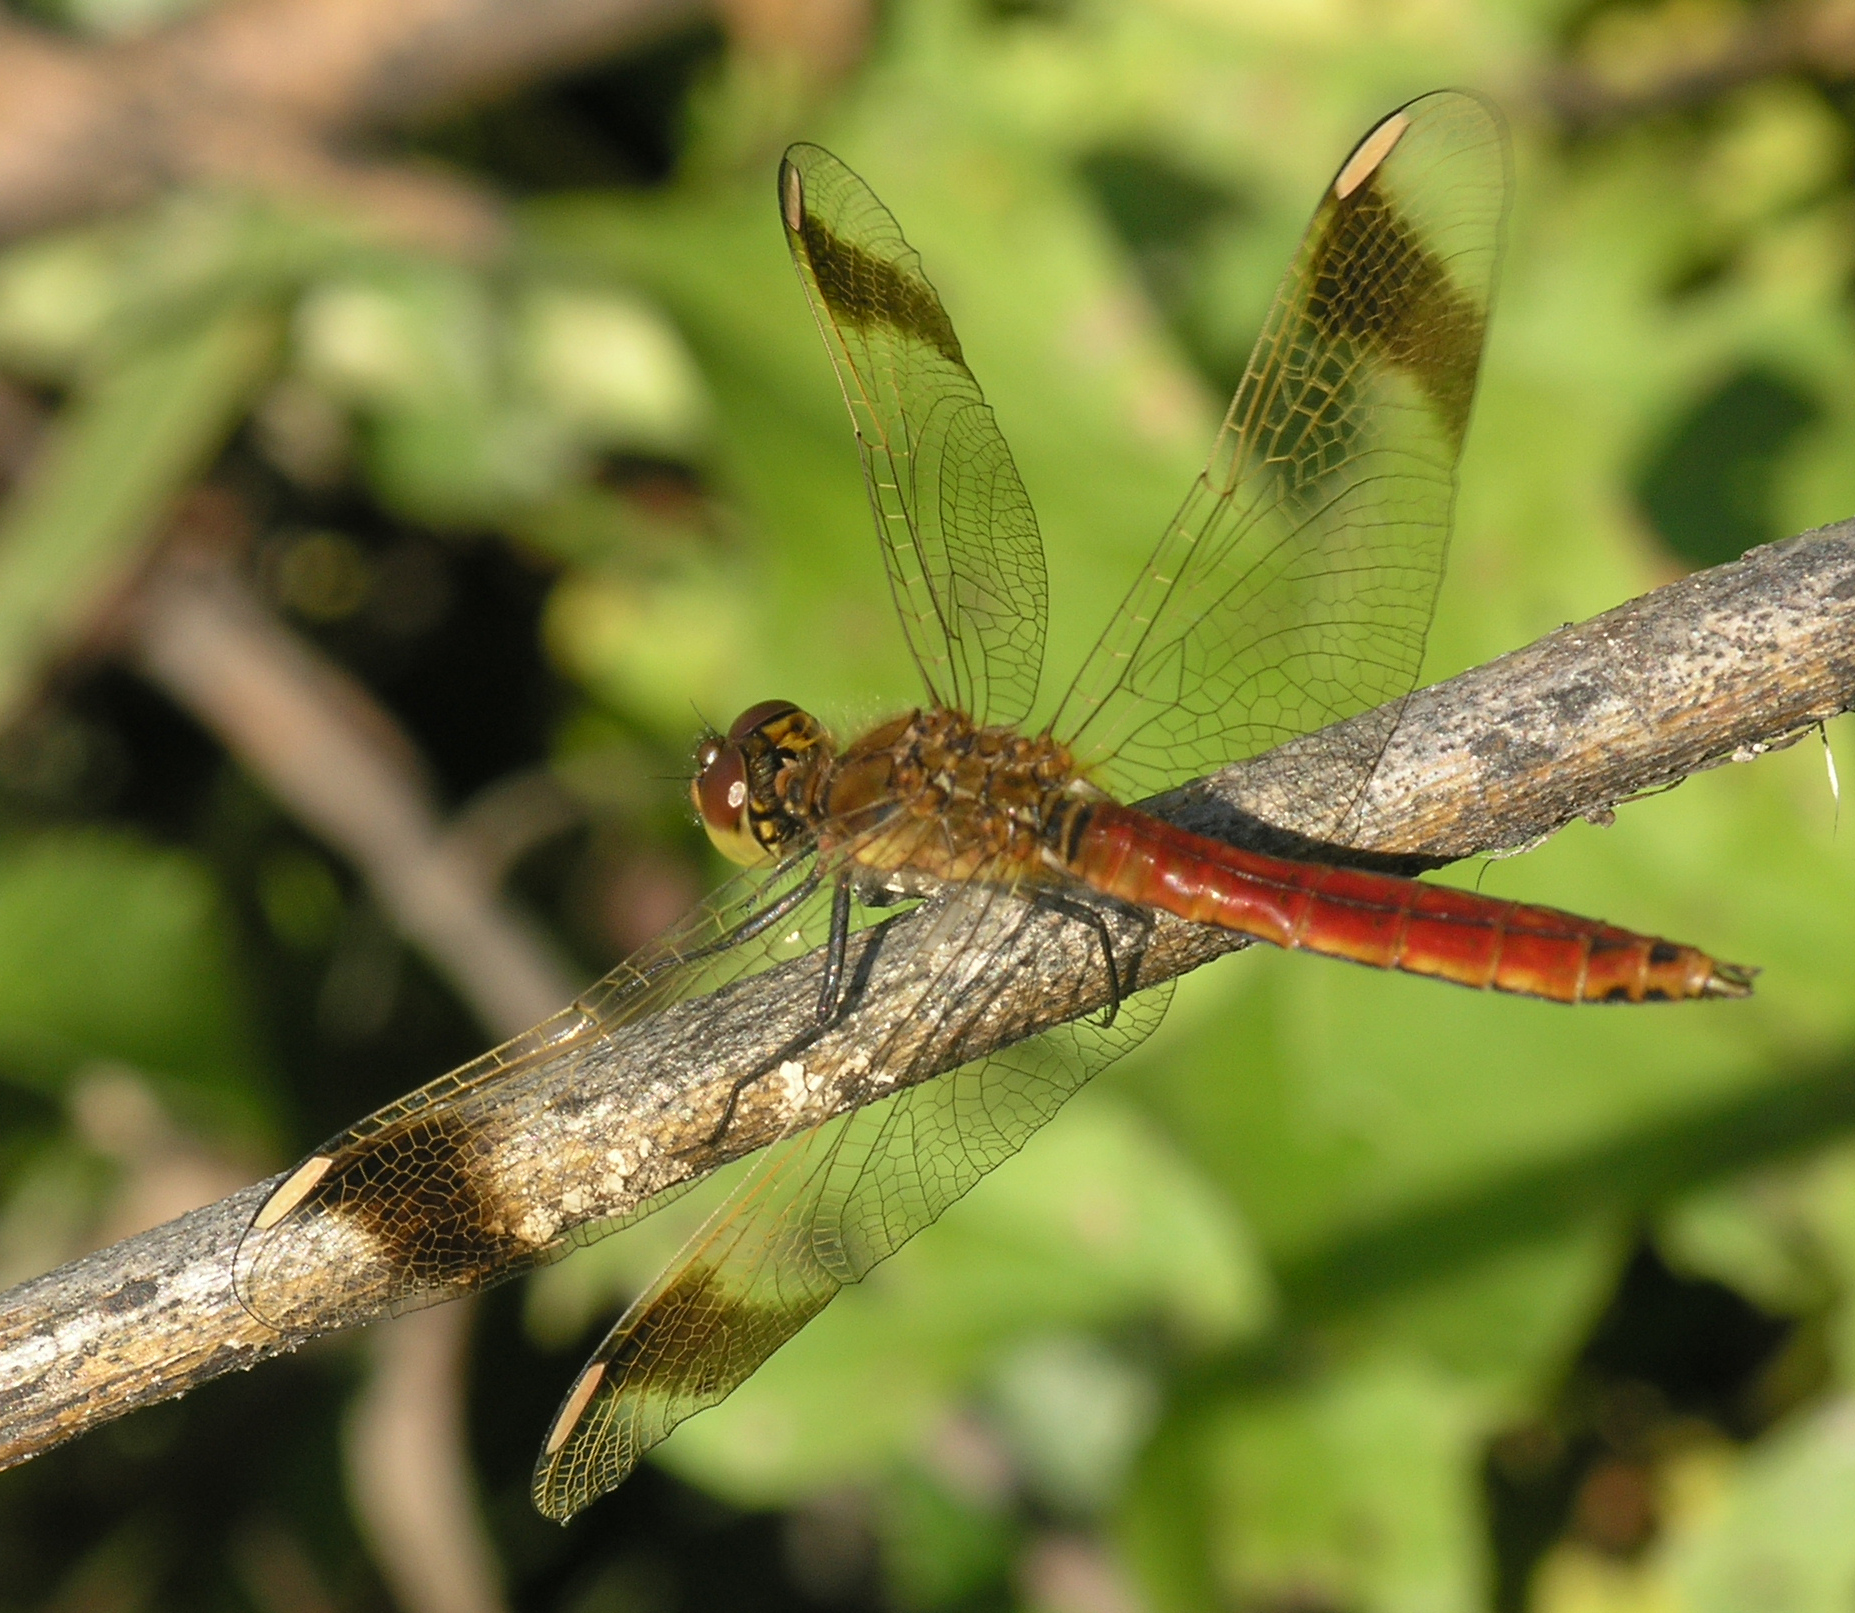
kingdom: Animalia
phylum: Arthropoda
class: Insecta
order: Odonata
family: Libellulidae
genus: Sympetrum
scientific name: Sympetrum pedemontanum
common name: Banded darter
